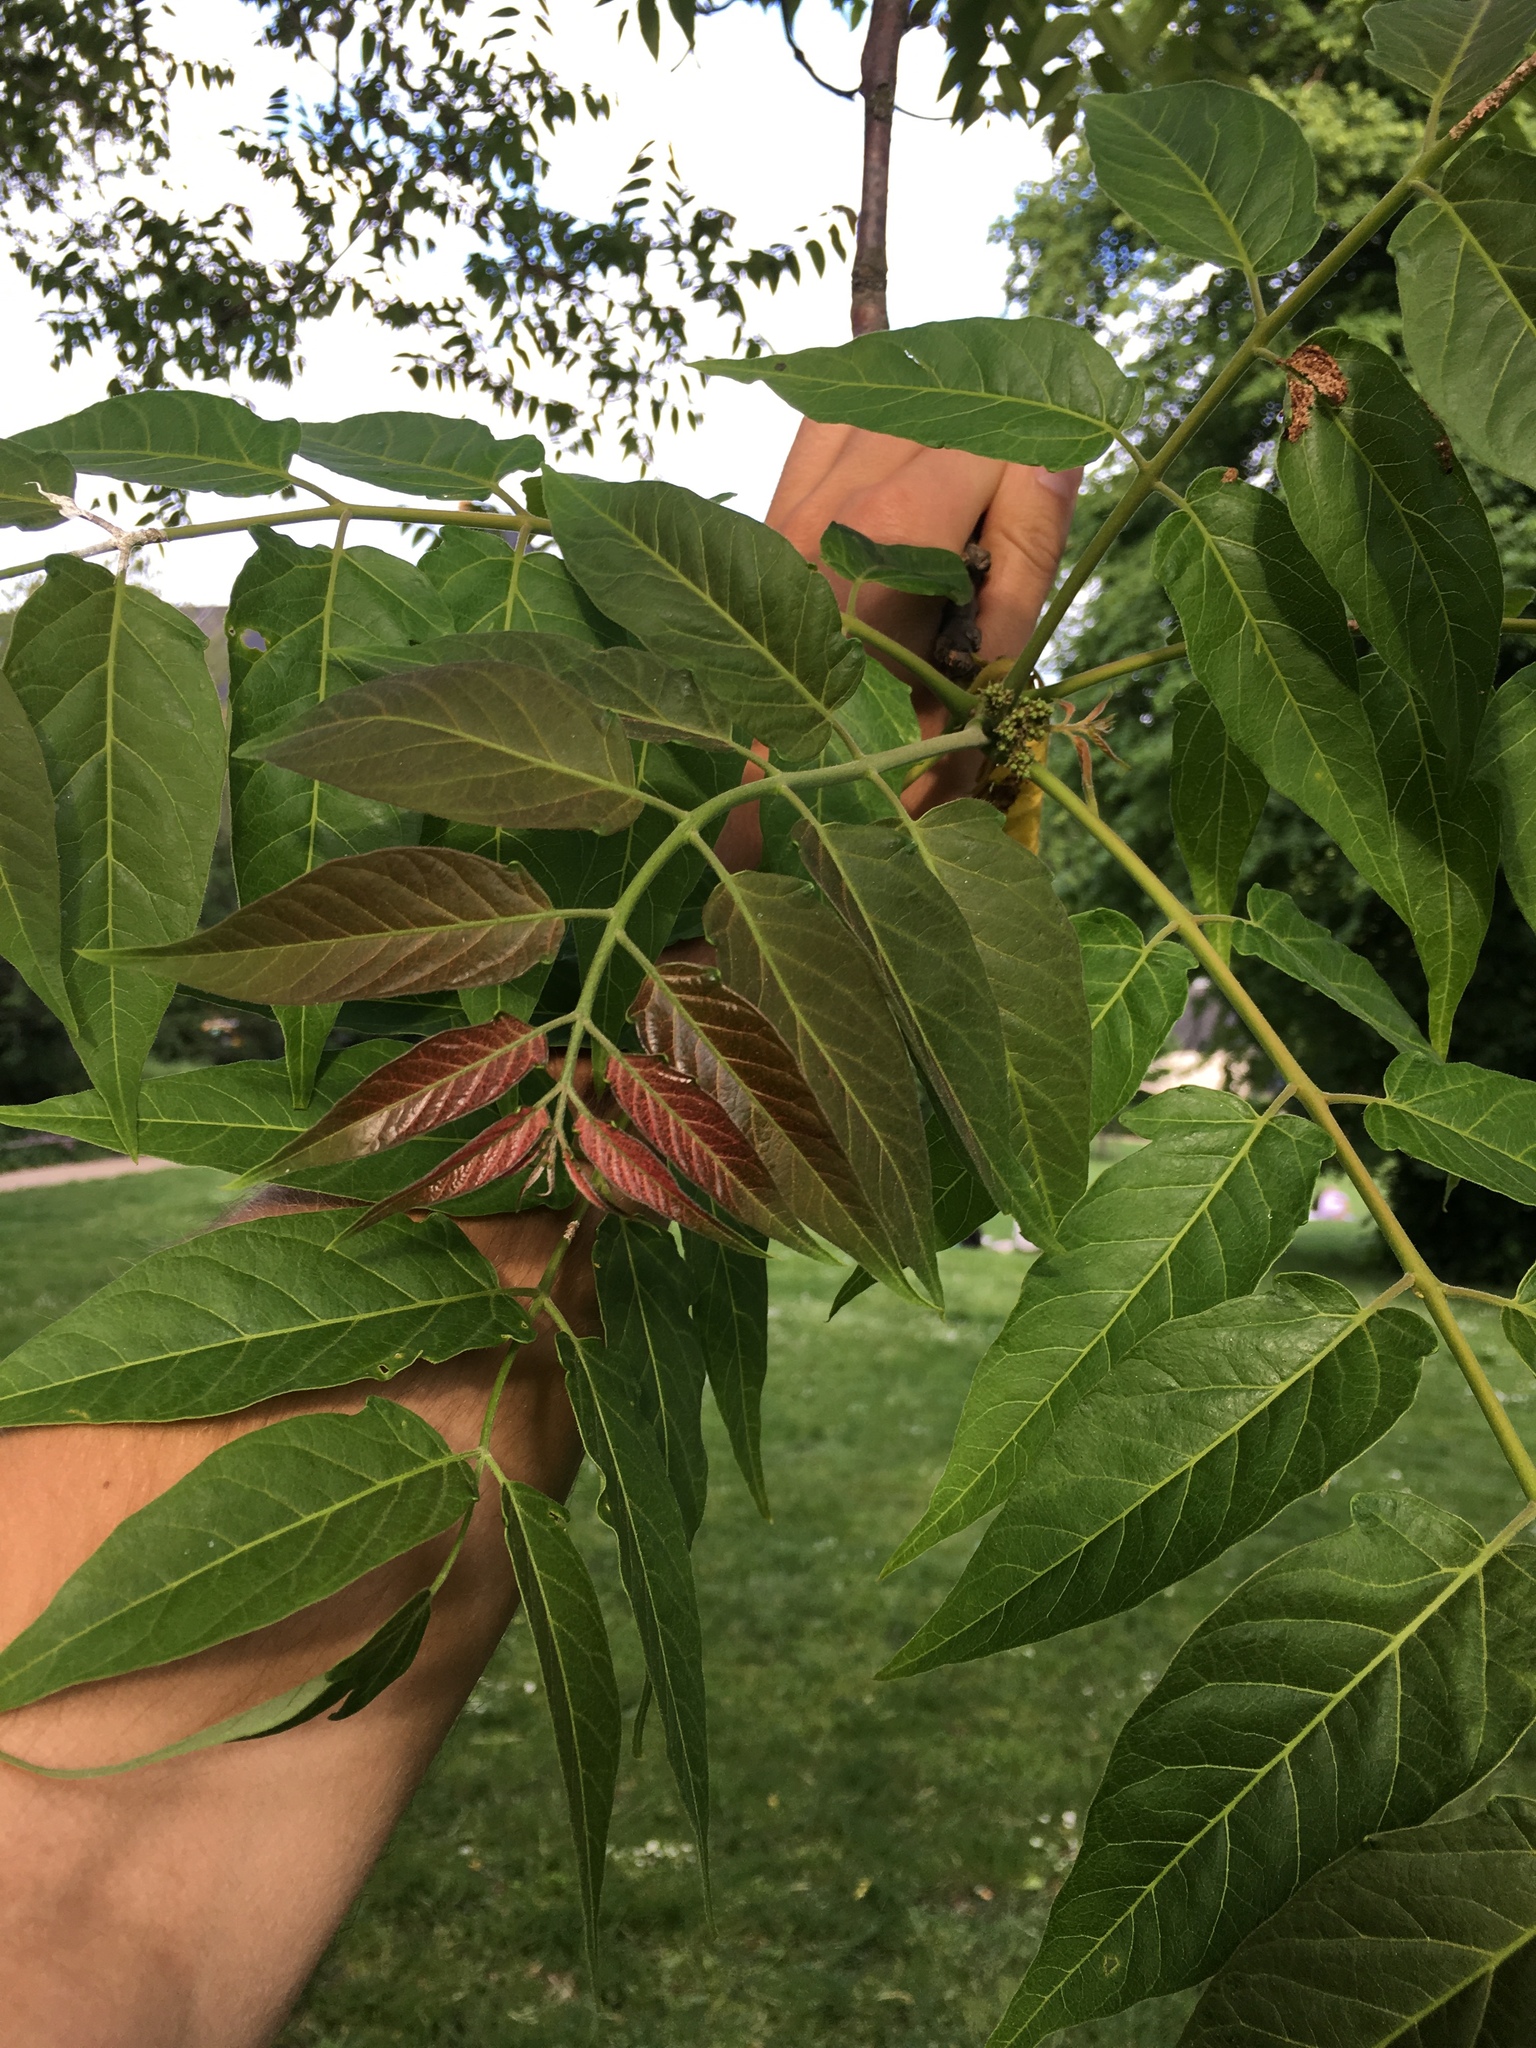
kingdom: Plantae
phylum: Tracheophyta
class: Magnoliopsida
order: Sapindales
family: Simaroubaceae
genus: Ailanthus
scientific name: Ailanthus altissima
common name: Tree-of-heaven
